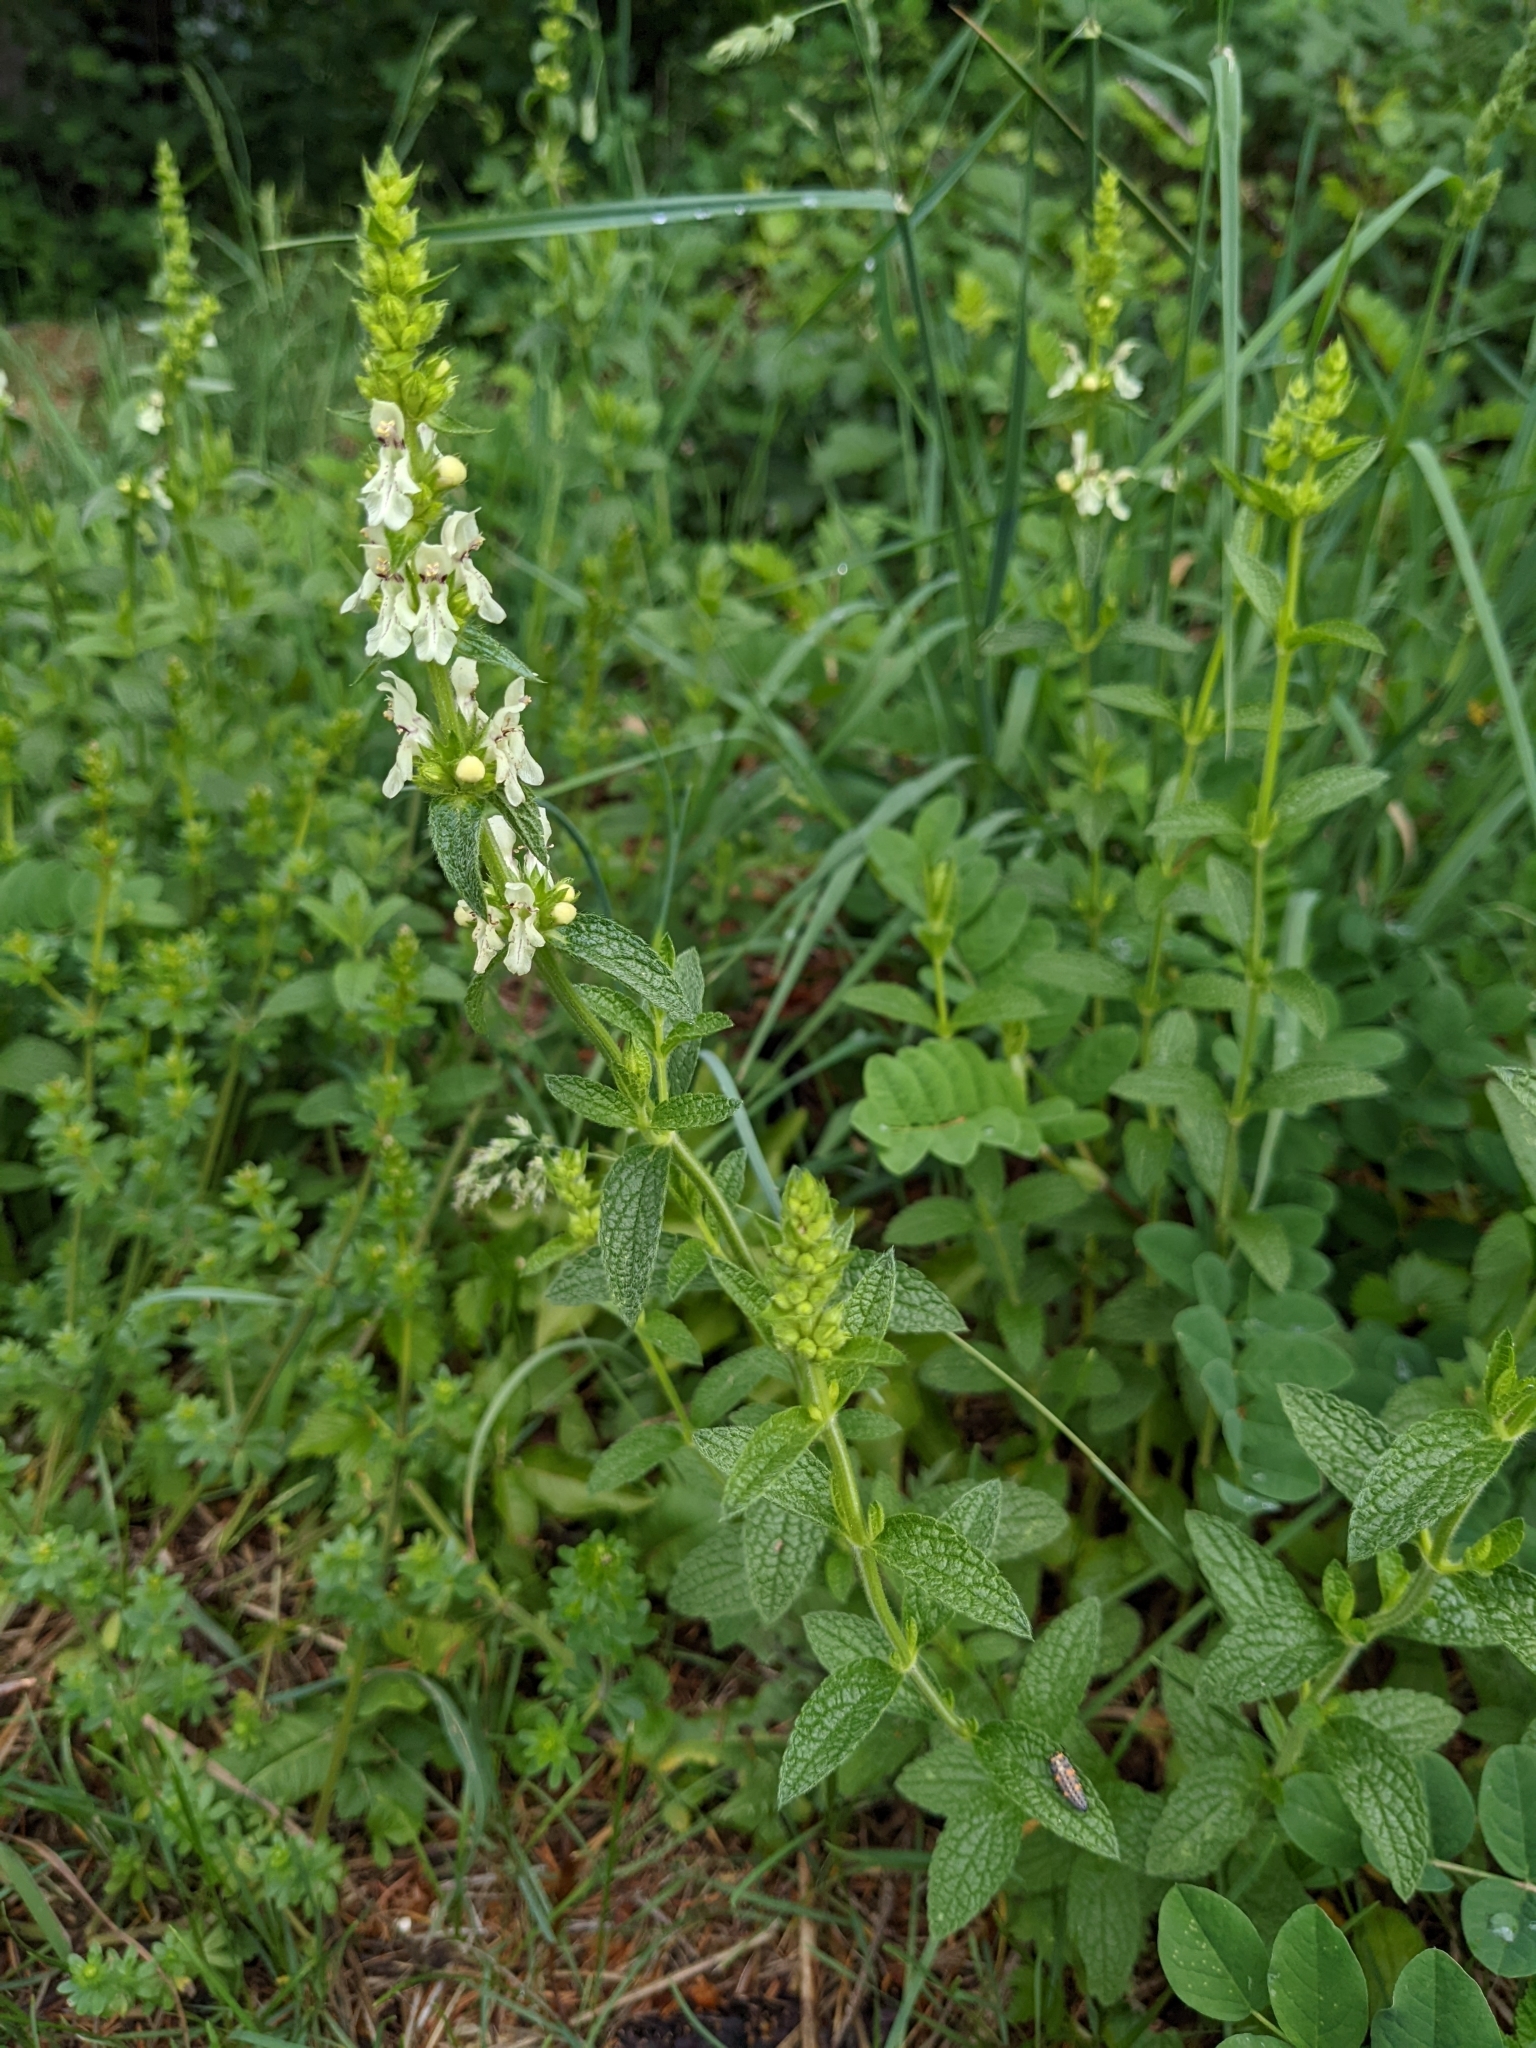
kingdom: Plantae
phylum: Tracheophyta
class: Magnoliopsida
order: Lamiales
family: Lamiaceae
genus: Stachys
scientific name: Stachys recta
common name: Perennial yellow-woundwort
